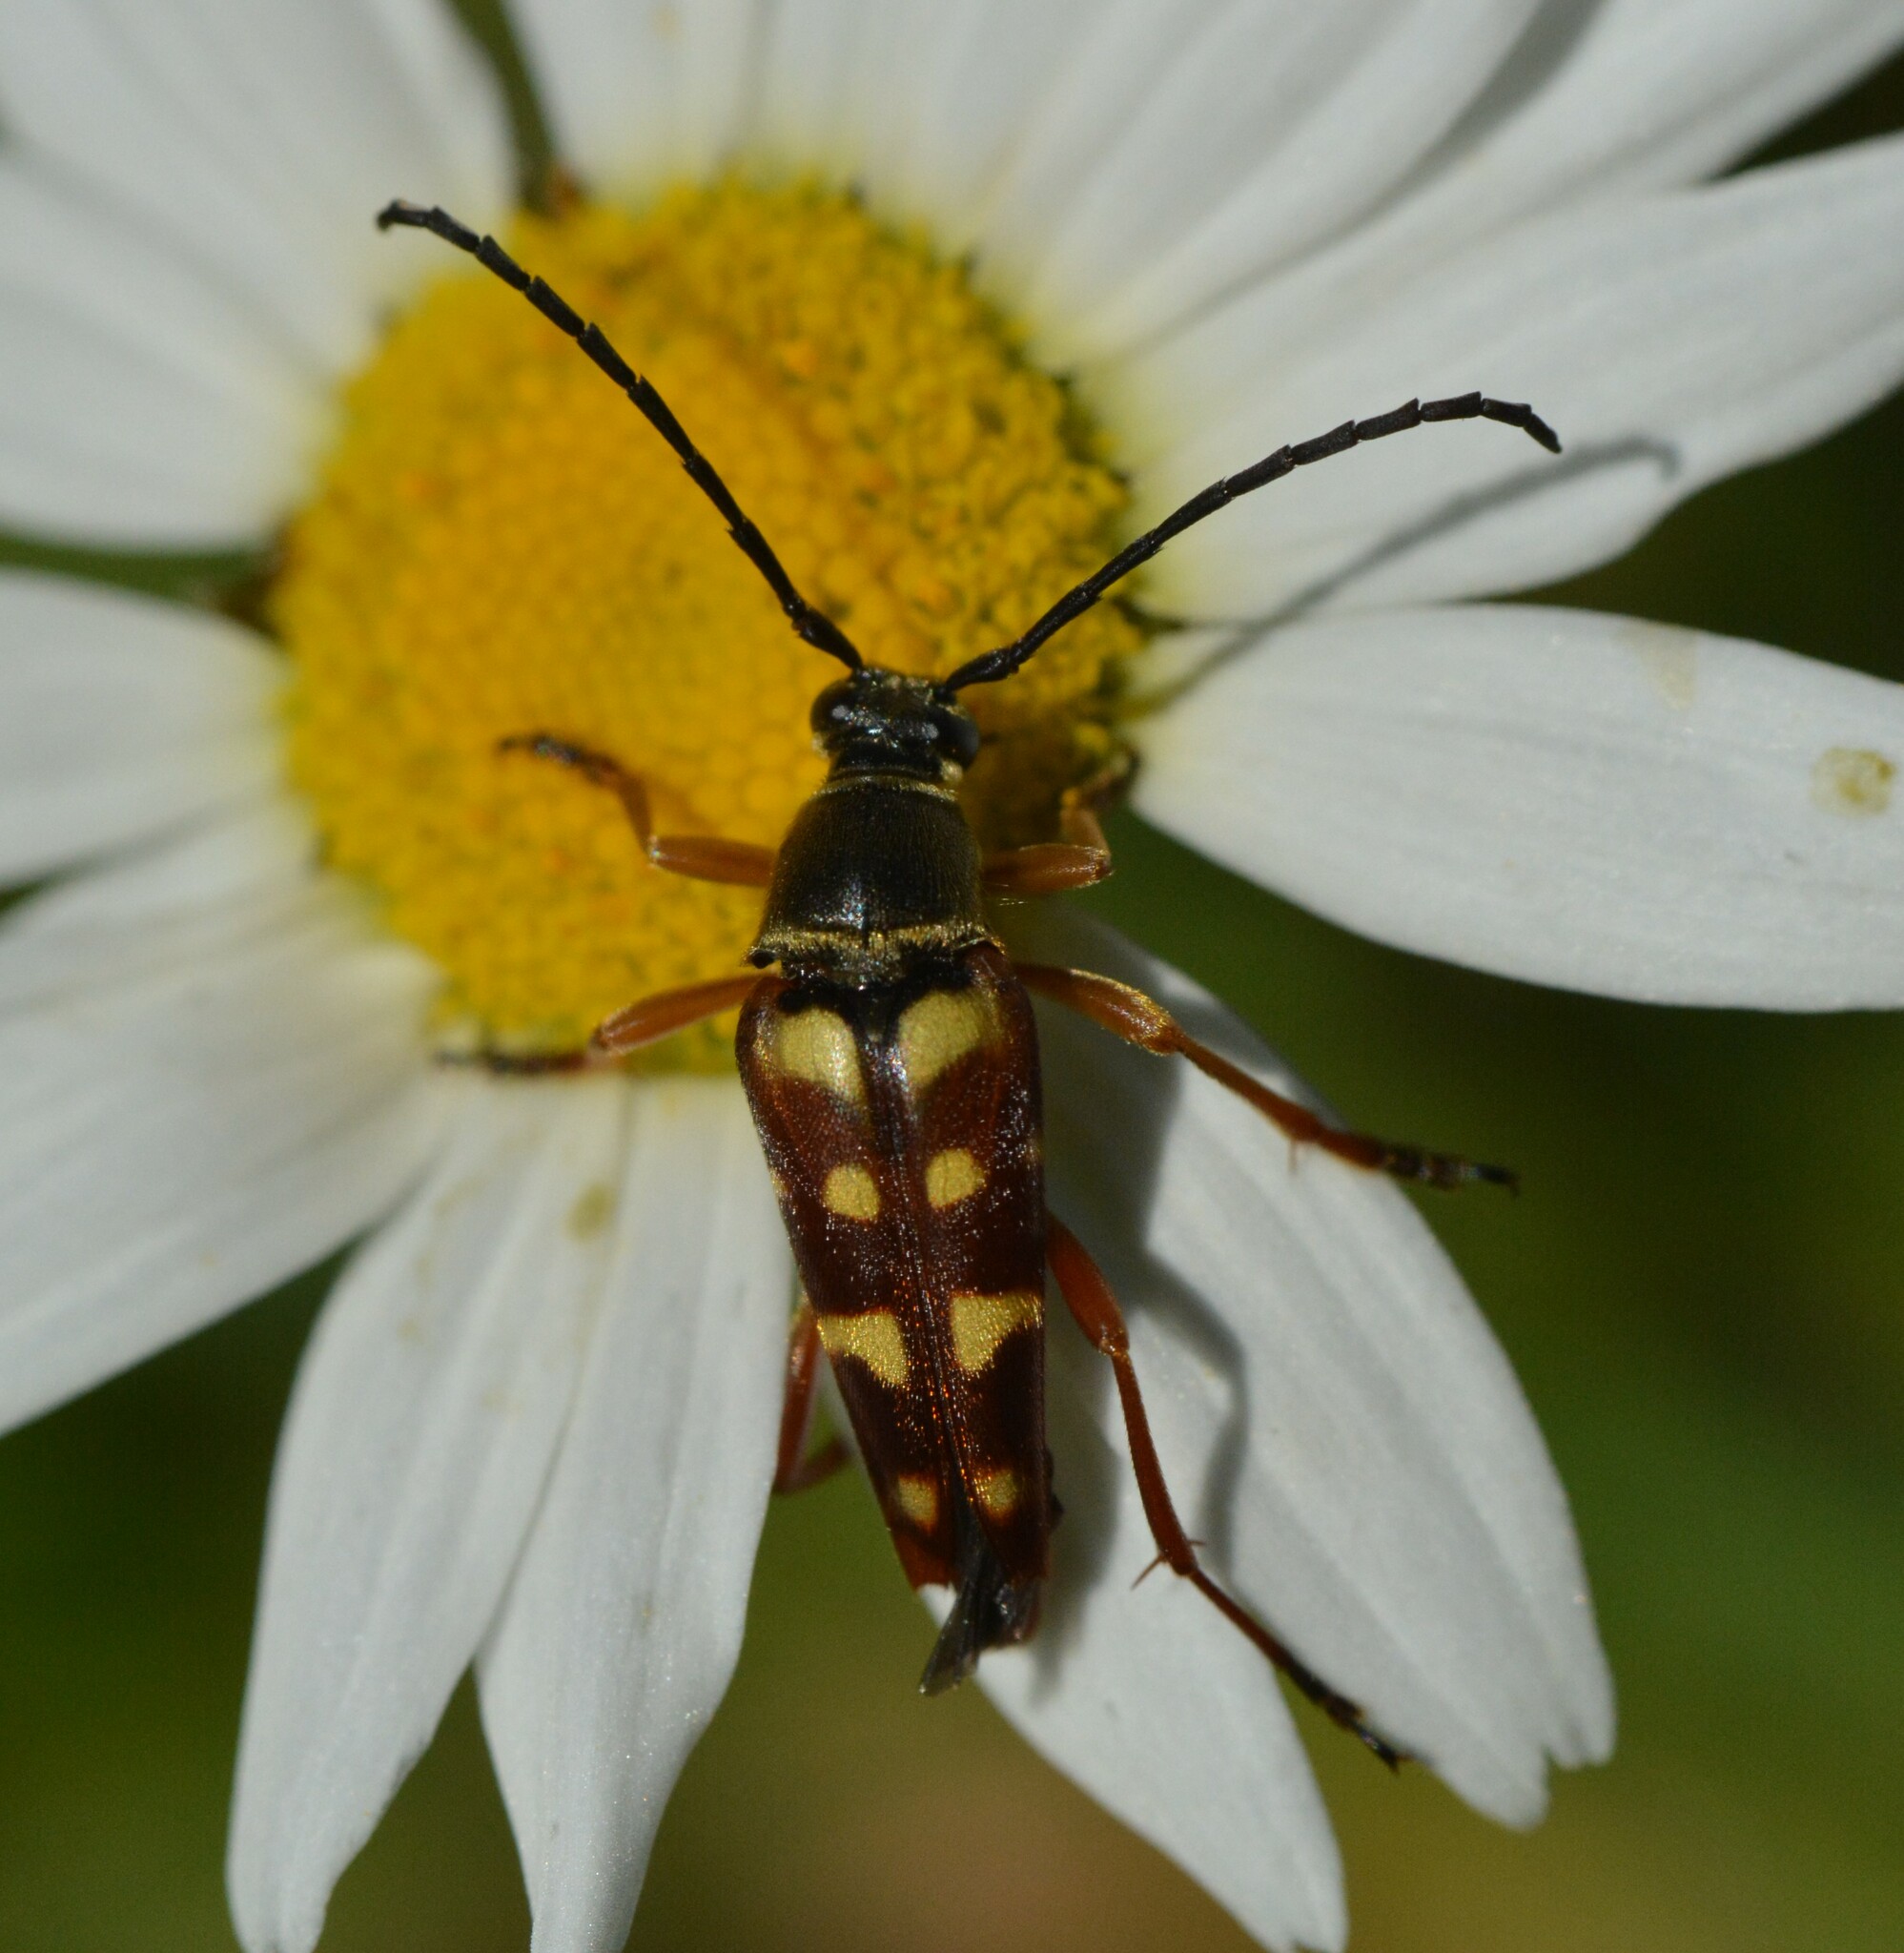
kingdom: Animalia
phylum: Arthropoda
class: Insecta
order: Coleoptera
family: Cerambycidae
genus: Typocerus
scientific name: Typocerus velutinus
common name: Banded longhorn beetle
